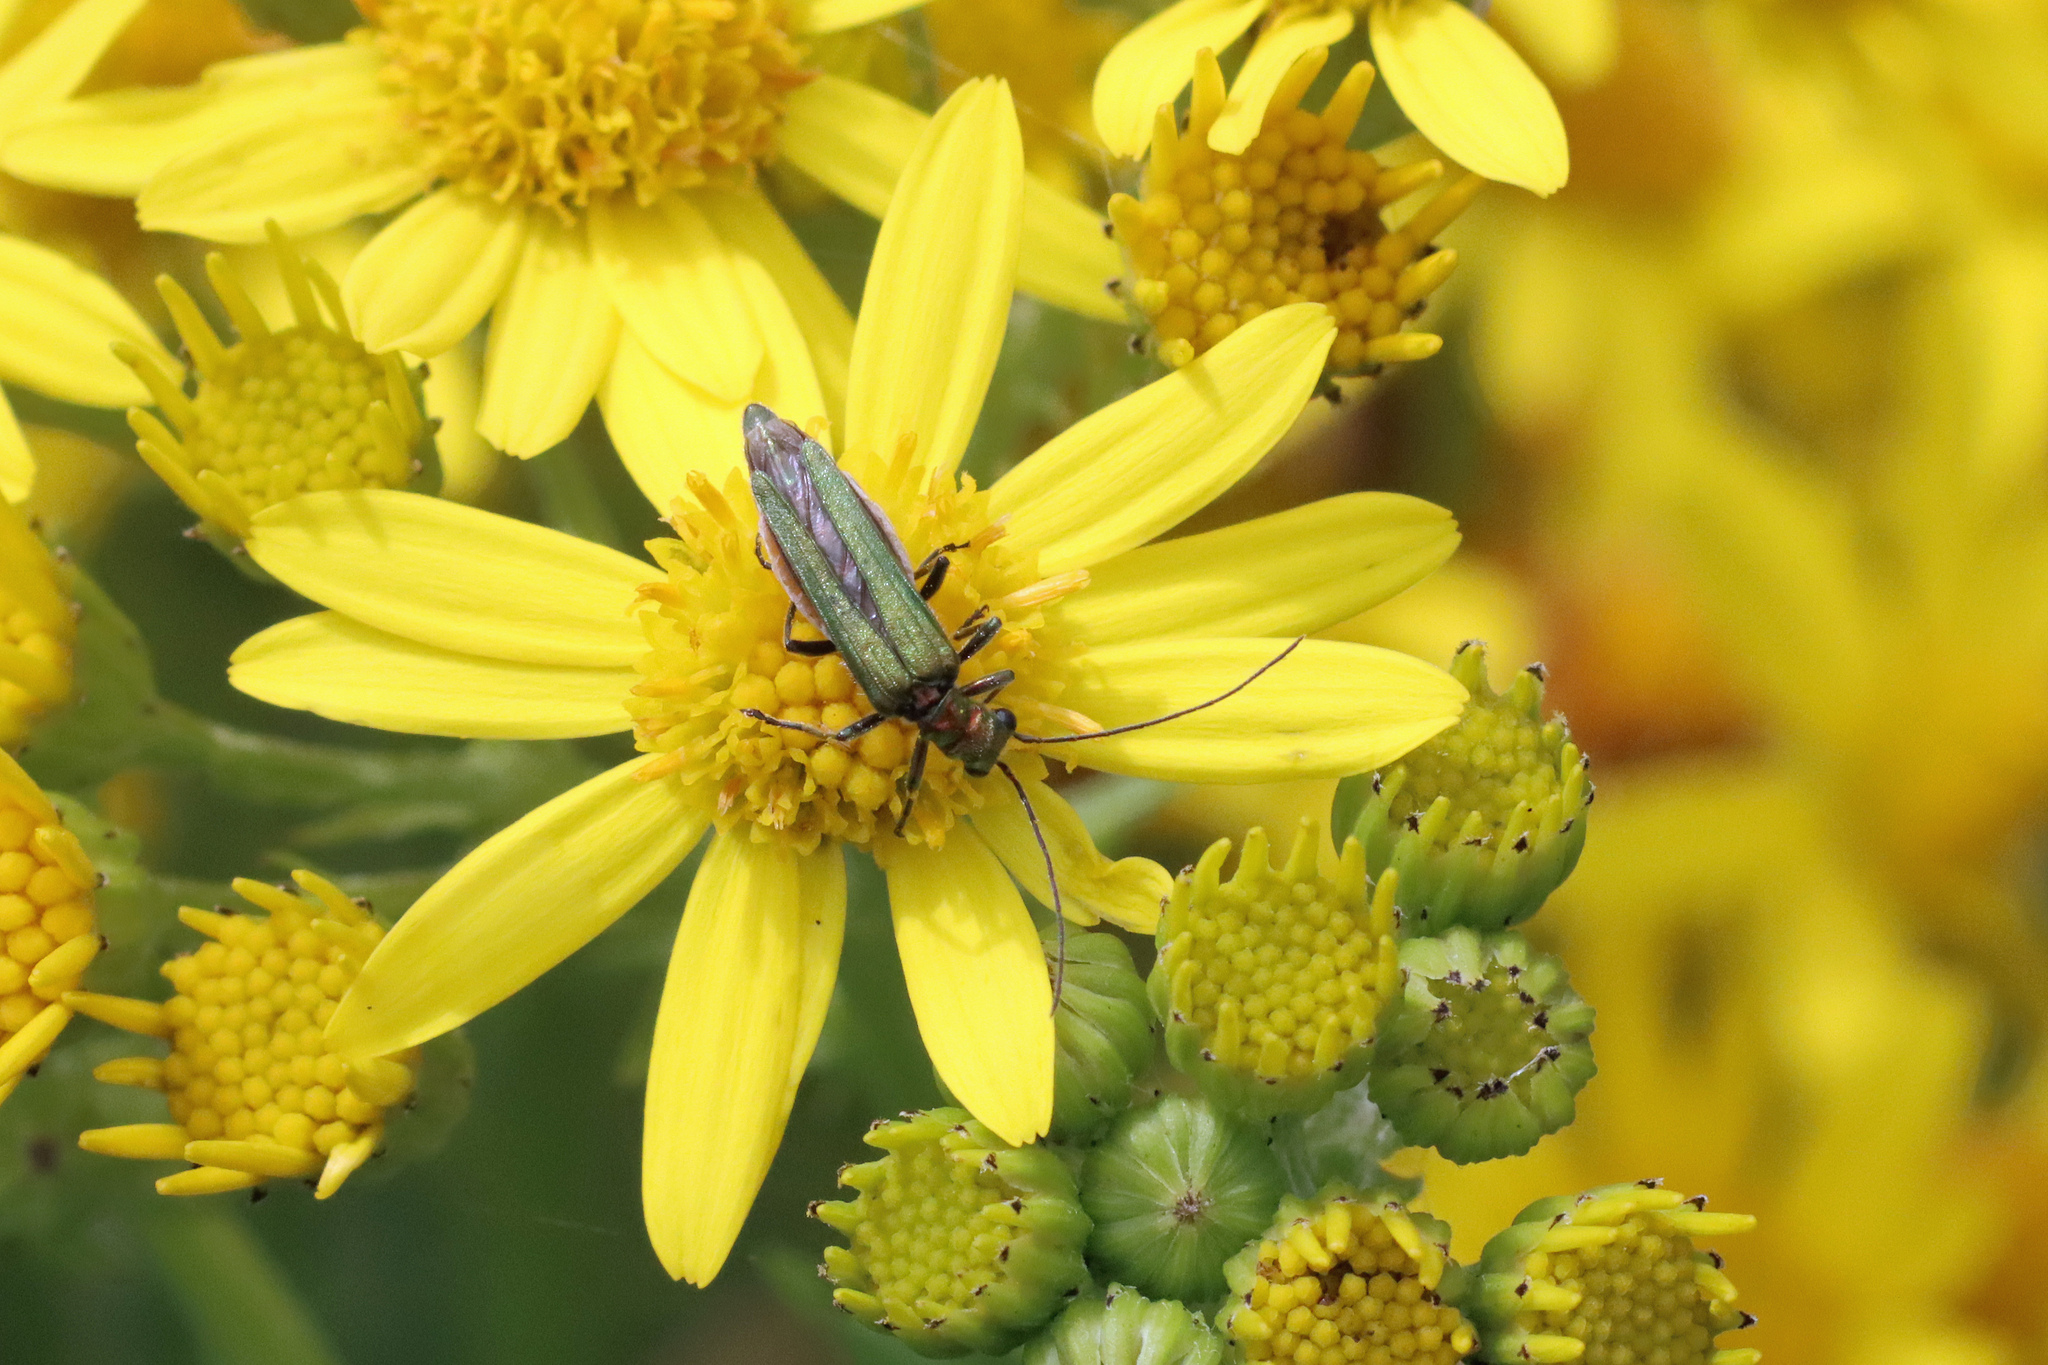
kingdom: Animalia
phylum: Arthropoda
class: Insecta
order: Coleoptera
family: Oedemeridae
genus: Oedemera
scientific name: Oedemera nobilis
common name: Swollen-thighed beetle
